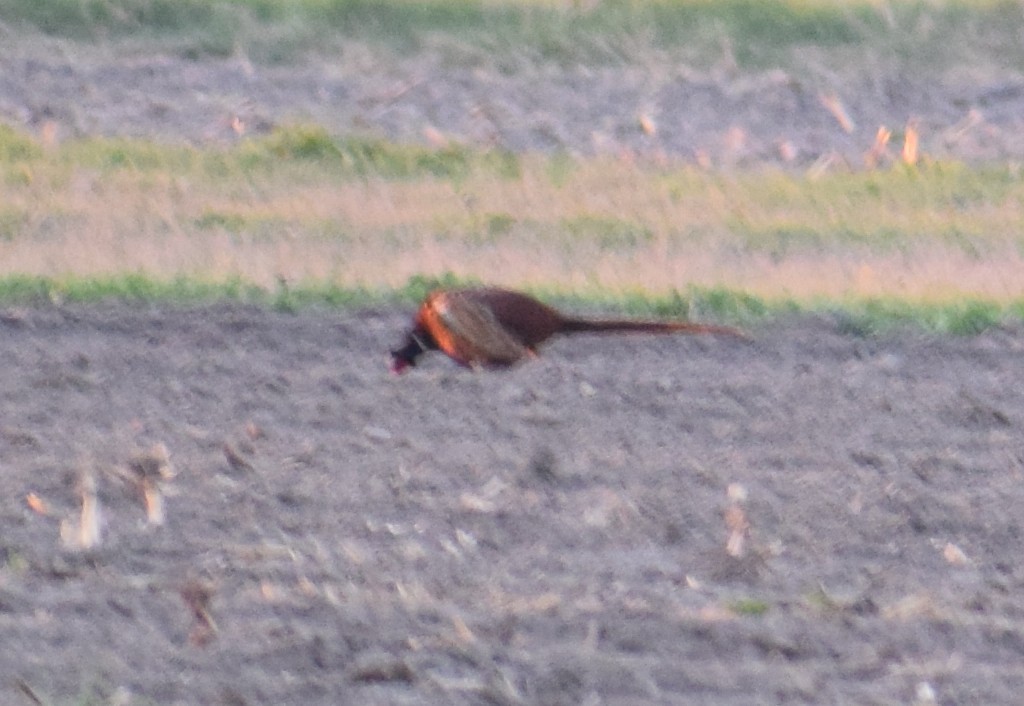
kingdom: Animalia
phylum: Chordata
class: Aves
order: Galliformes
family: Phasianidae
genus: Phasianus
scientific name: Phasianus colchicus
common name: Common pheasant
